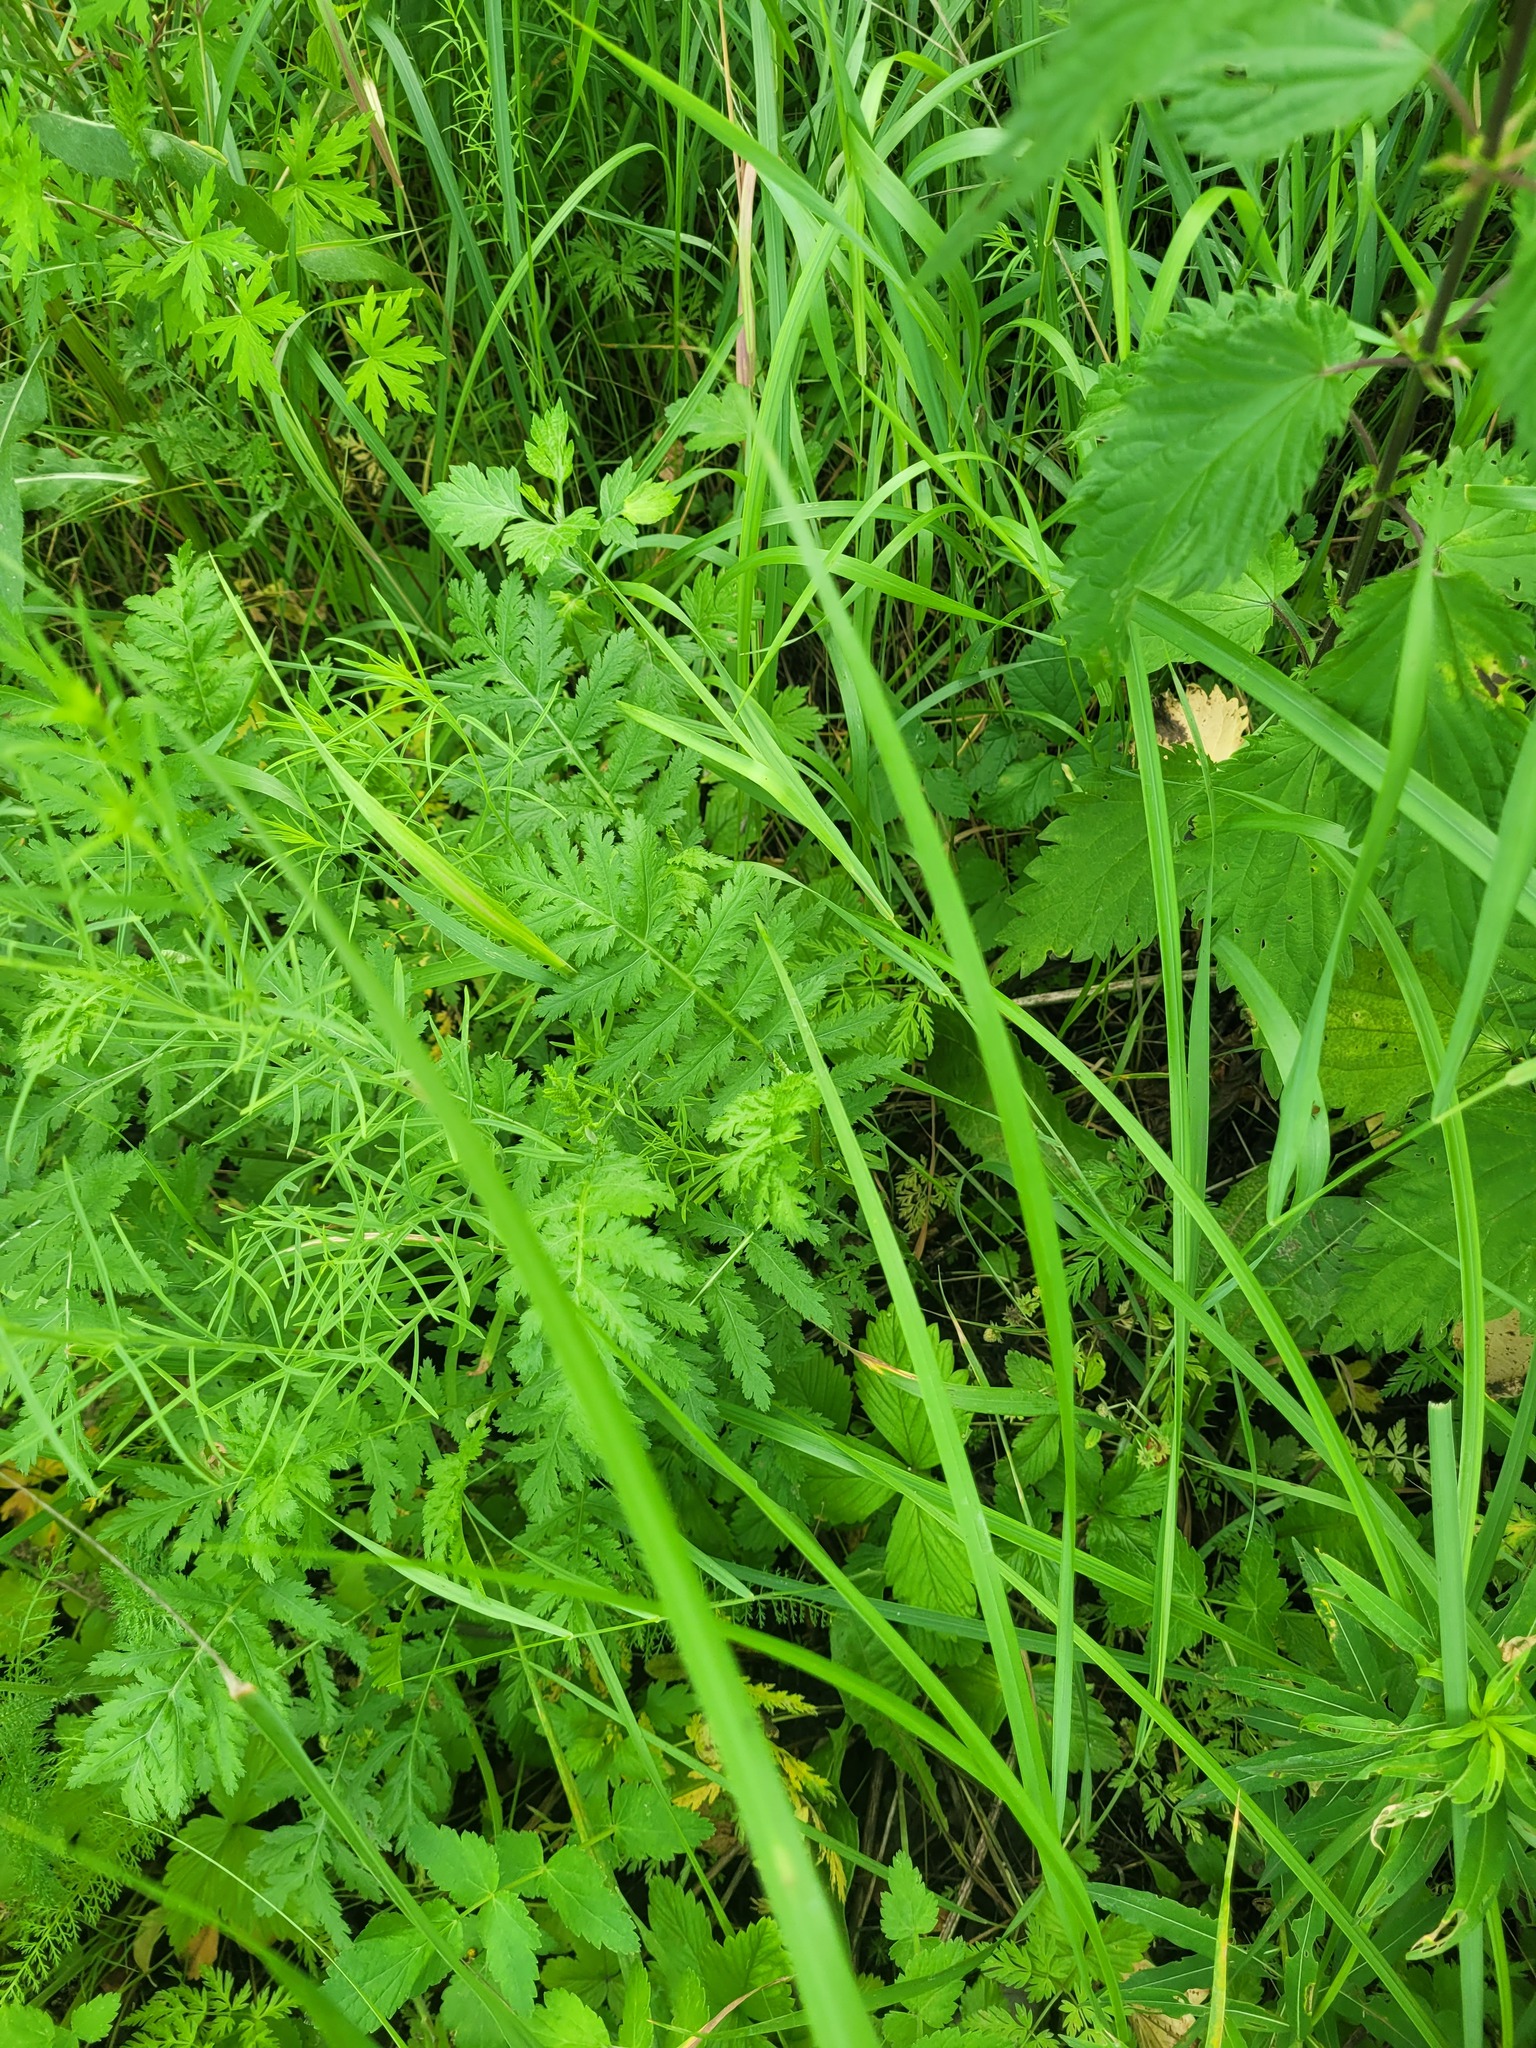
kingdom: Plantae
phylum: Tracheophyta
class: Magnoliopsida
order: Asterales
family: Asteraceae
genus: Tanacetum
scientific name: Tanacetum vulgare
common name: Common tansy
